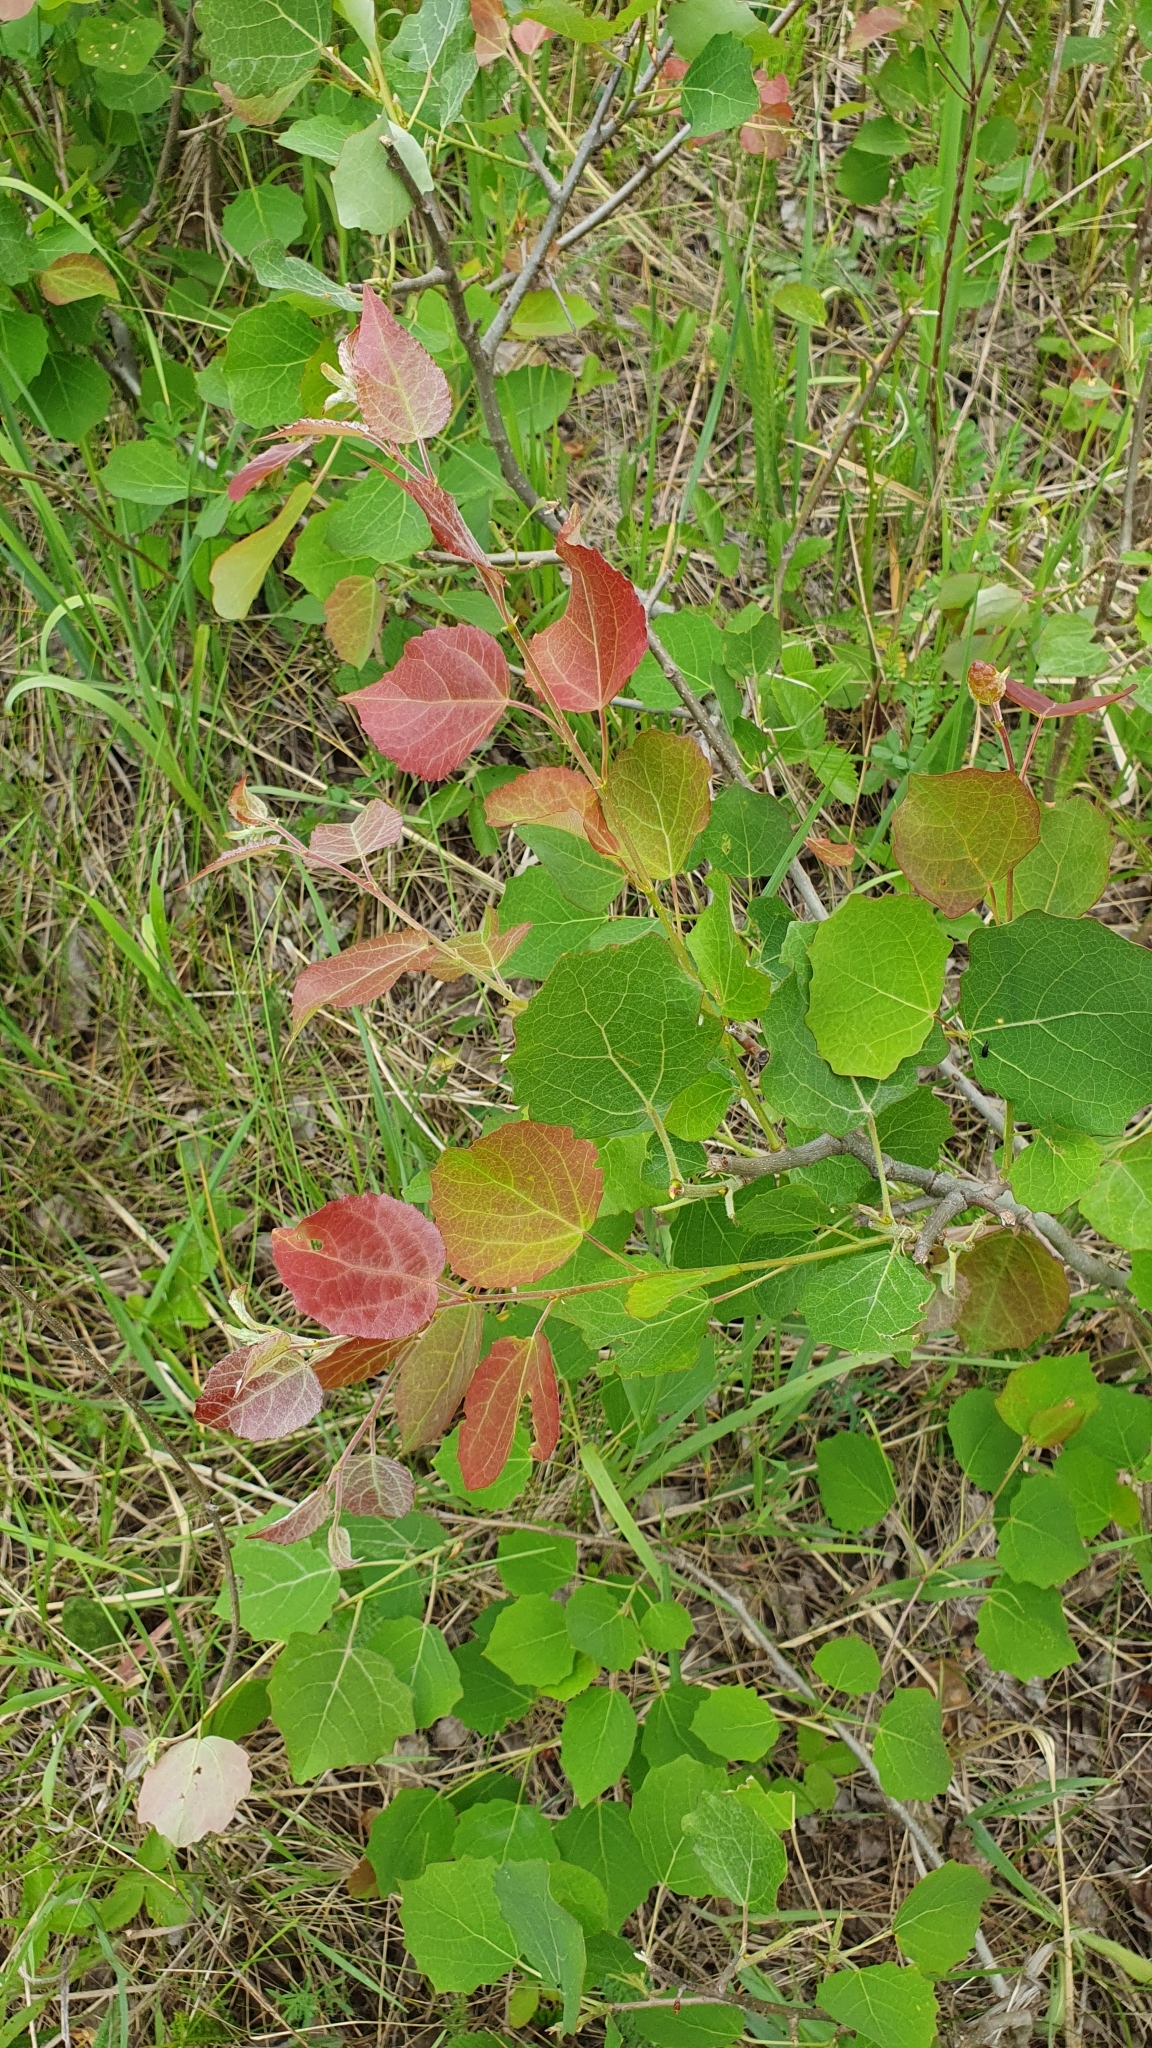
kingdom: Plantae
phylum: Tracheophyta
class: Magnoliopsida
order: Malpighiales
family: Salicaceae
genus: Populus
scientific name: Populus tremula
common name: European aspen
